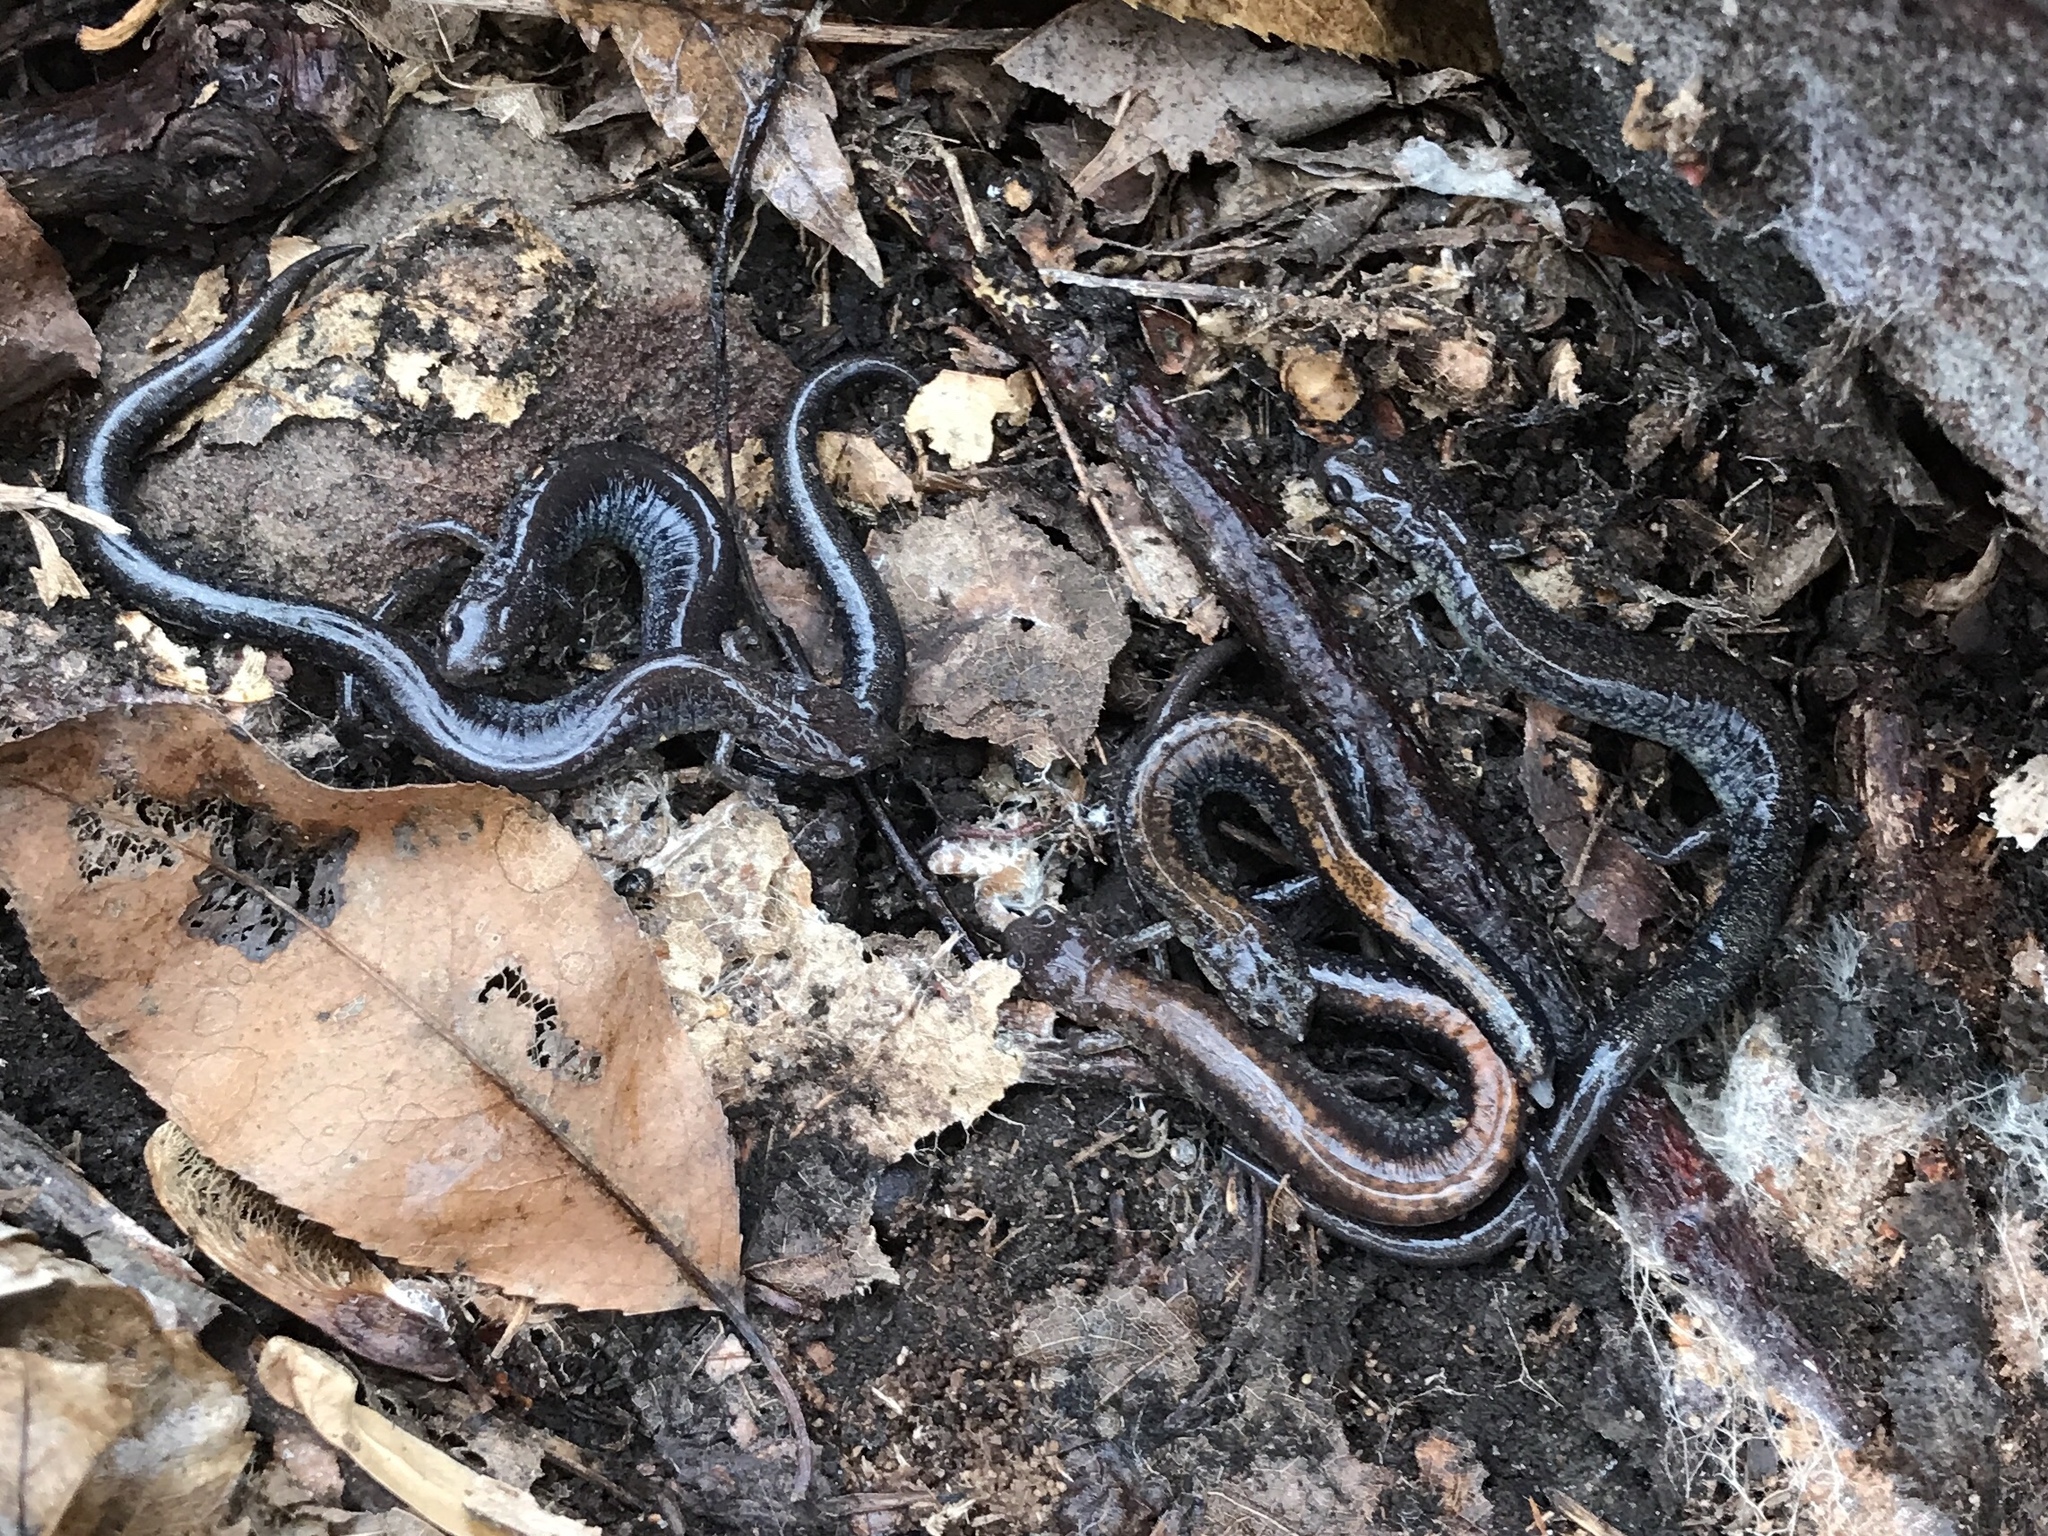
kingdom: Animalia
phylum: Chordata
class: Amphibia
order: Caudata
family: Plethodontidae
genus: Plethodon
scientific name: Plethodon cinereus
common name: Redback salamander
